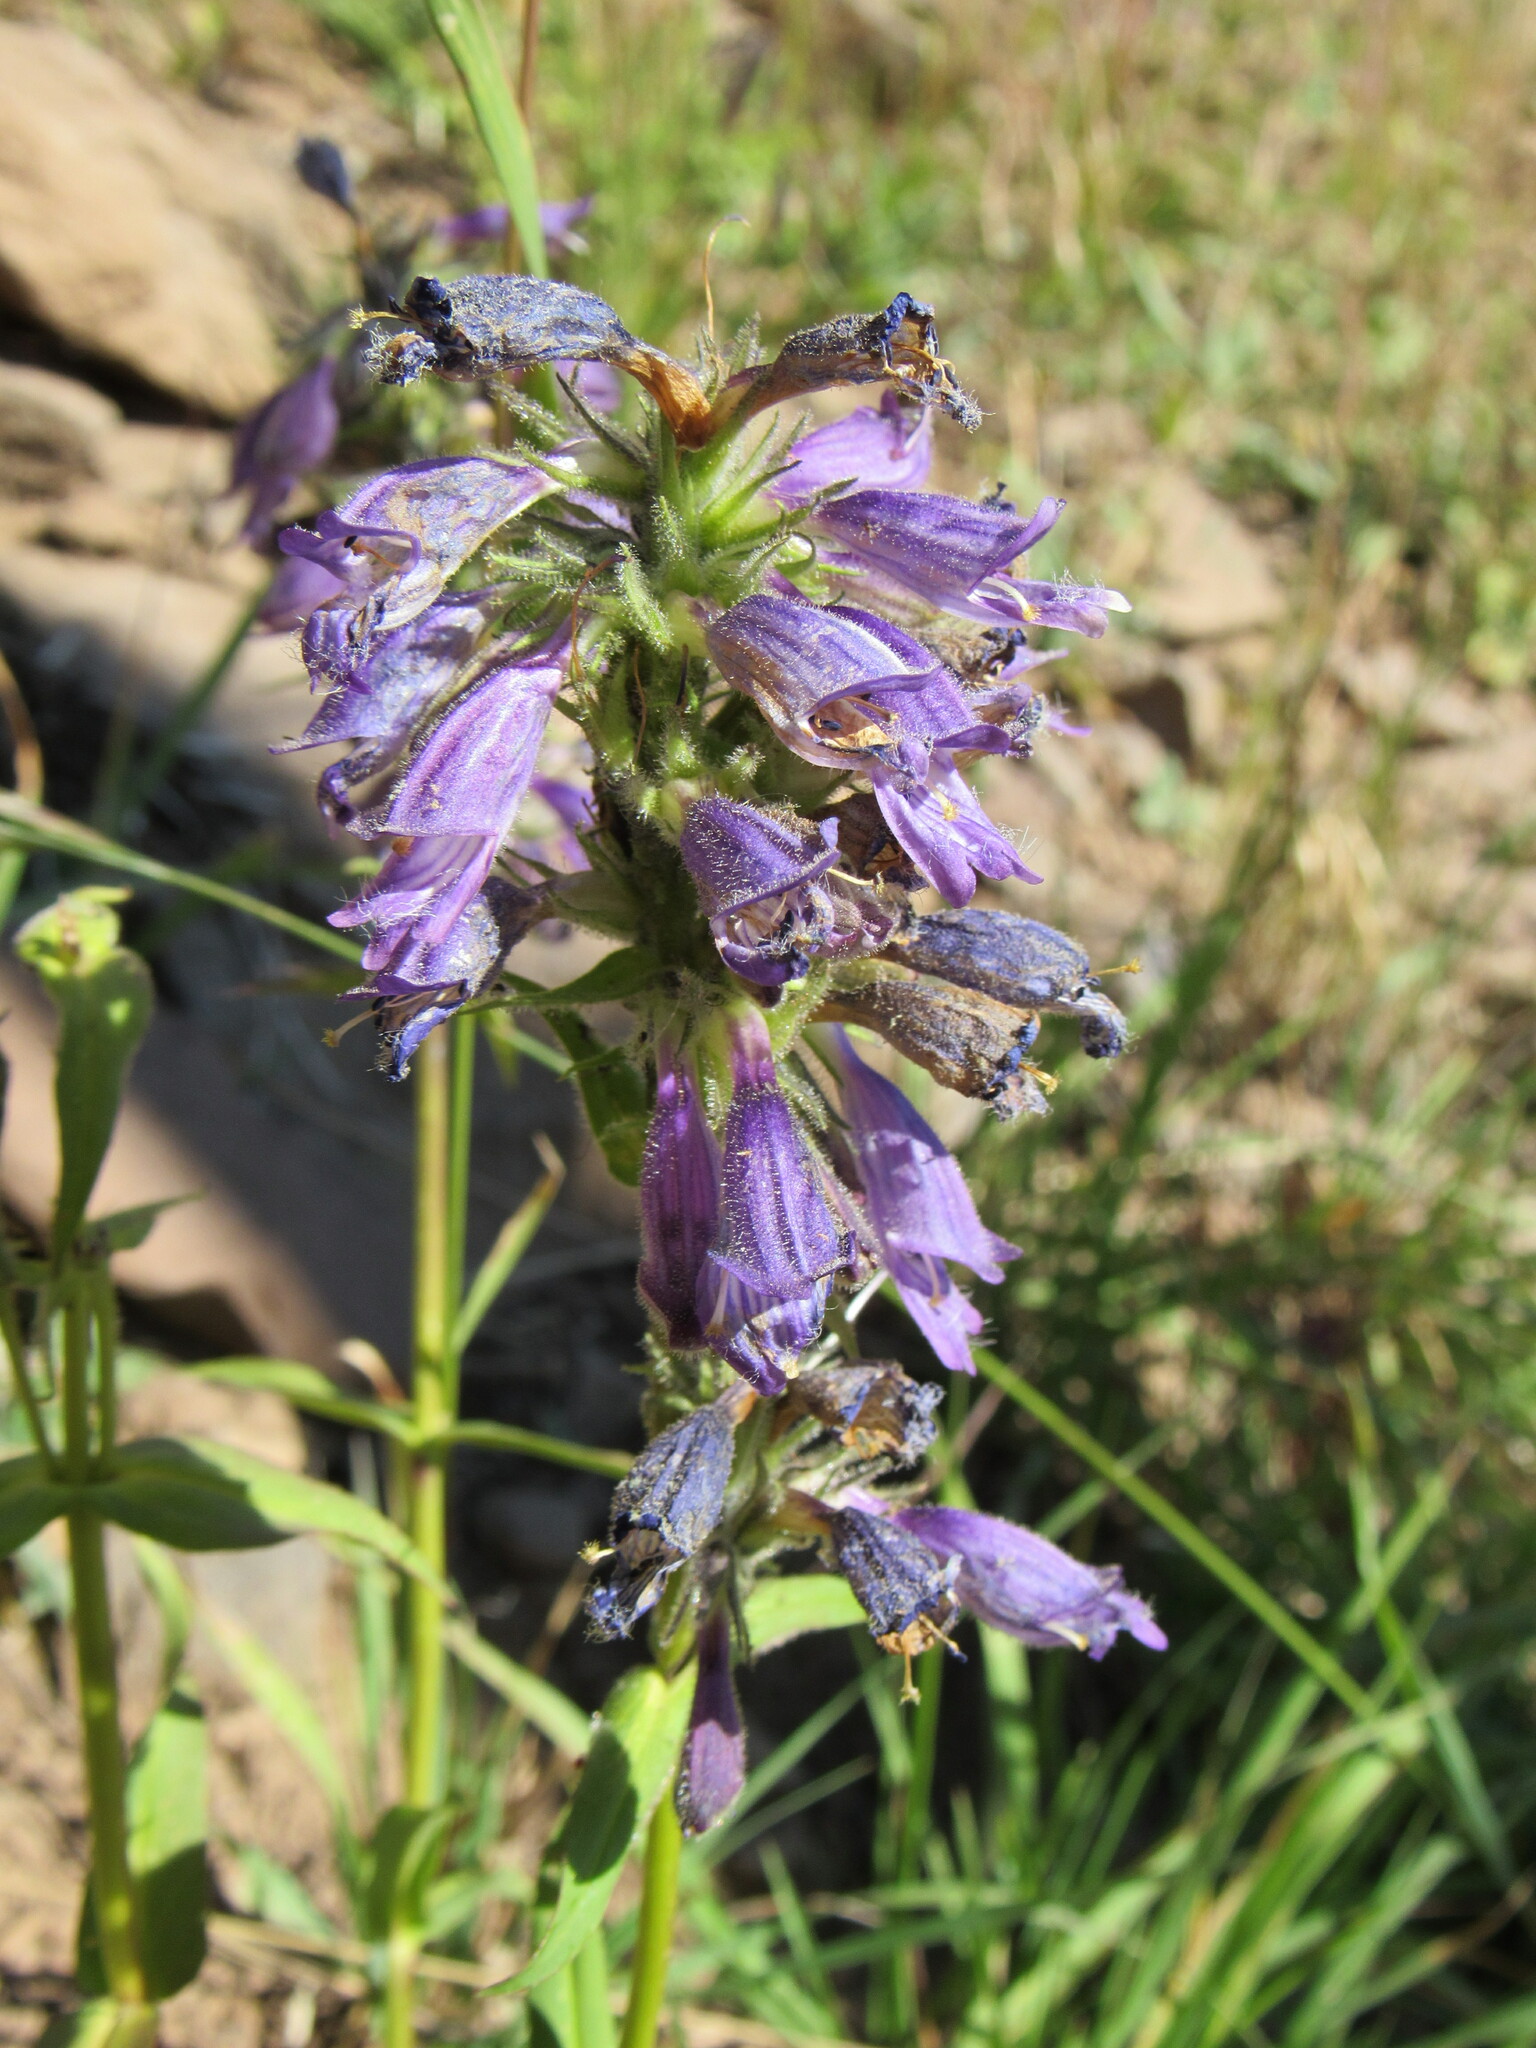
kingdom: Plantae
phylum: Tracheophyta
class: Magnoliopsida
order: Lamiales
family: Plantaginaceae
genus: Penstemon
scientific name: Penstemon whippleanus
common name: Whipple's penstemon
